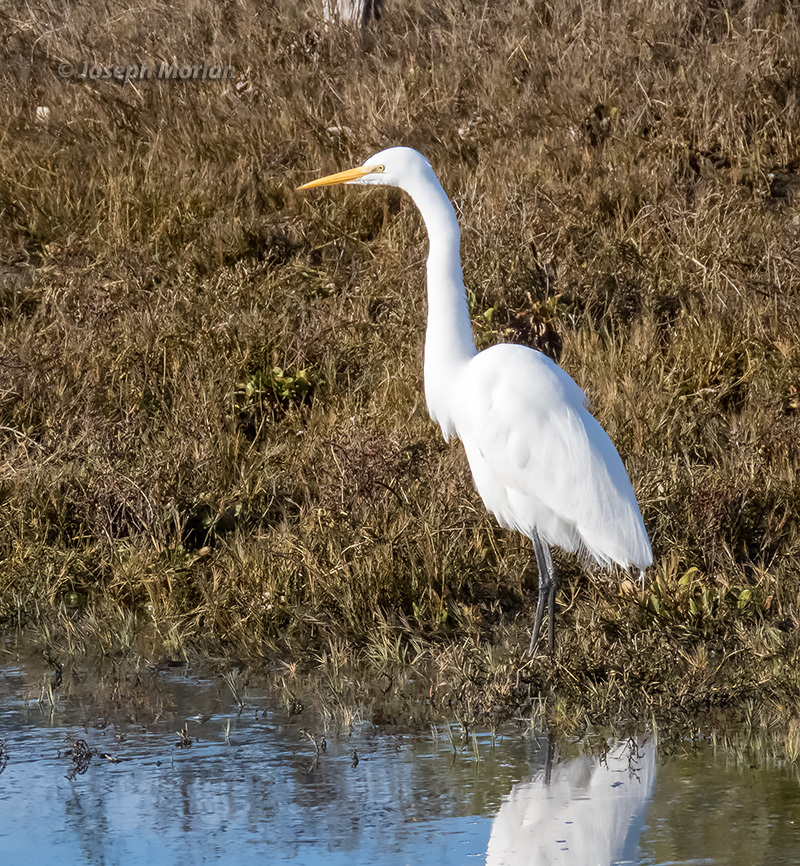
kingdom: Animalia
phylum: Chordata
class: Aves
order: Pelecaniformes
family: Ardeidae
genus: Ardea
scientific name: Ardea alba
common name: Great egret
